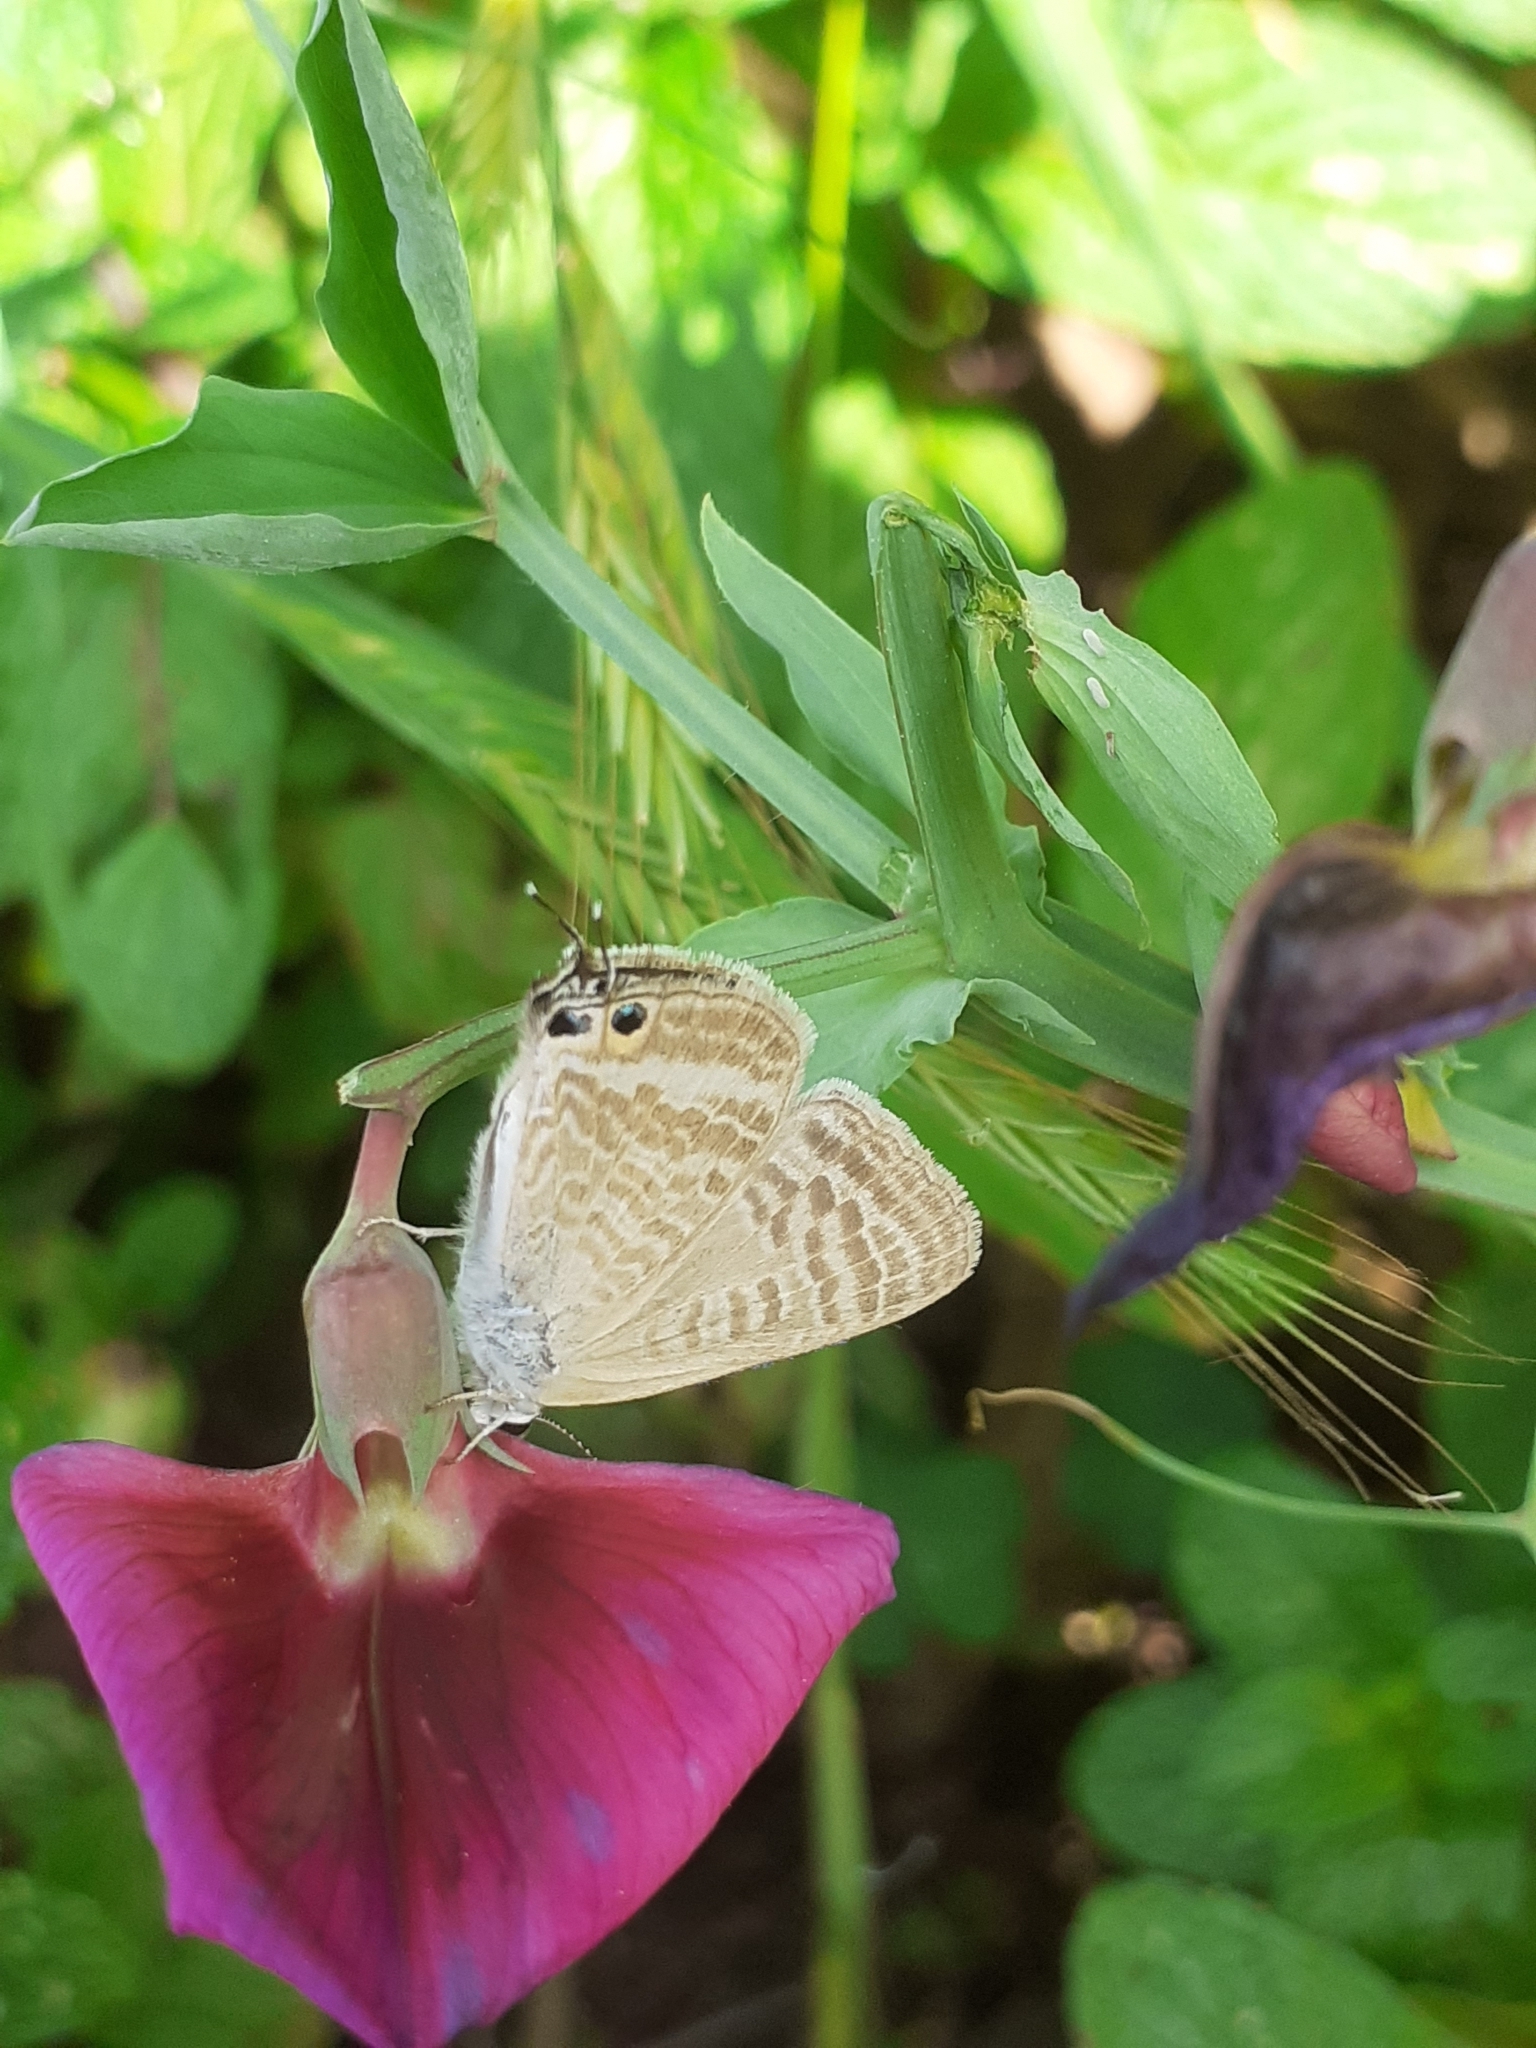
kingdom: Animalia
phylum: Arthropoda
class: Insecta
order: Lepidoptera
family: Lycaenidae
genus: Lampides
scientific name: Lampides boeticus
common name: Long-tailed blue
